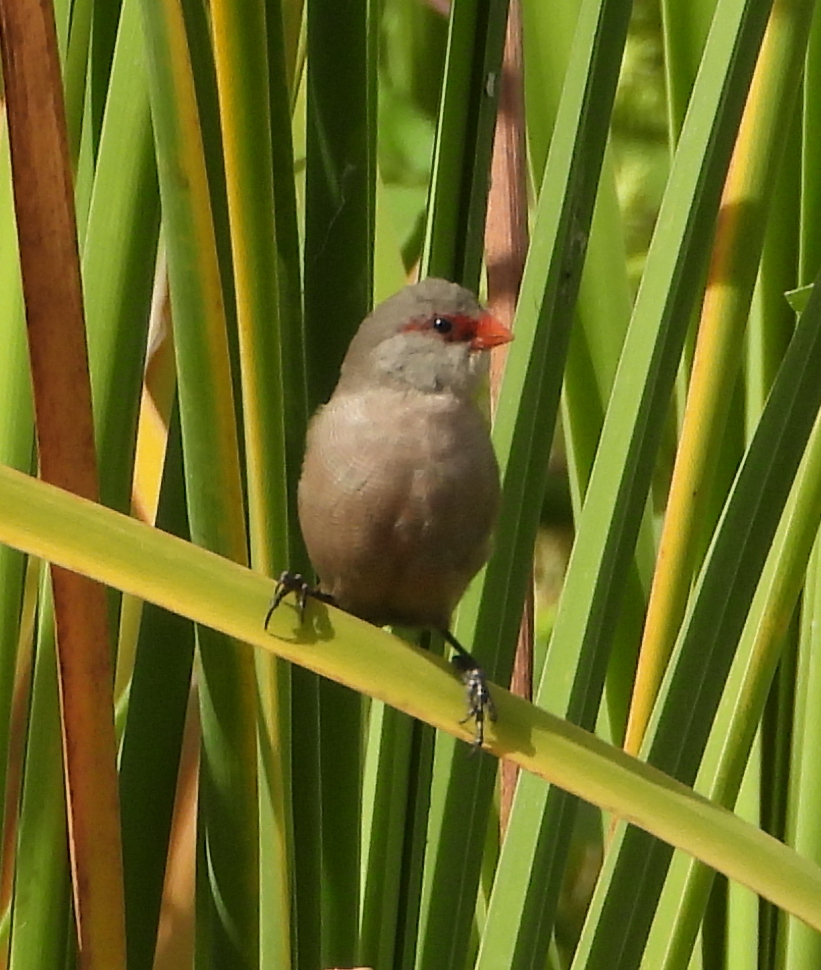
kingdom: Animalia
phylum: Chordata
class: Aves
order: Passeriformes
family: Estrildidae
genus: Estrilda
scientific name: Estrilda astrild
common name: Common waxbill
